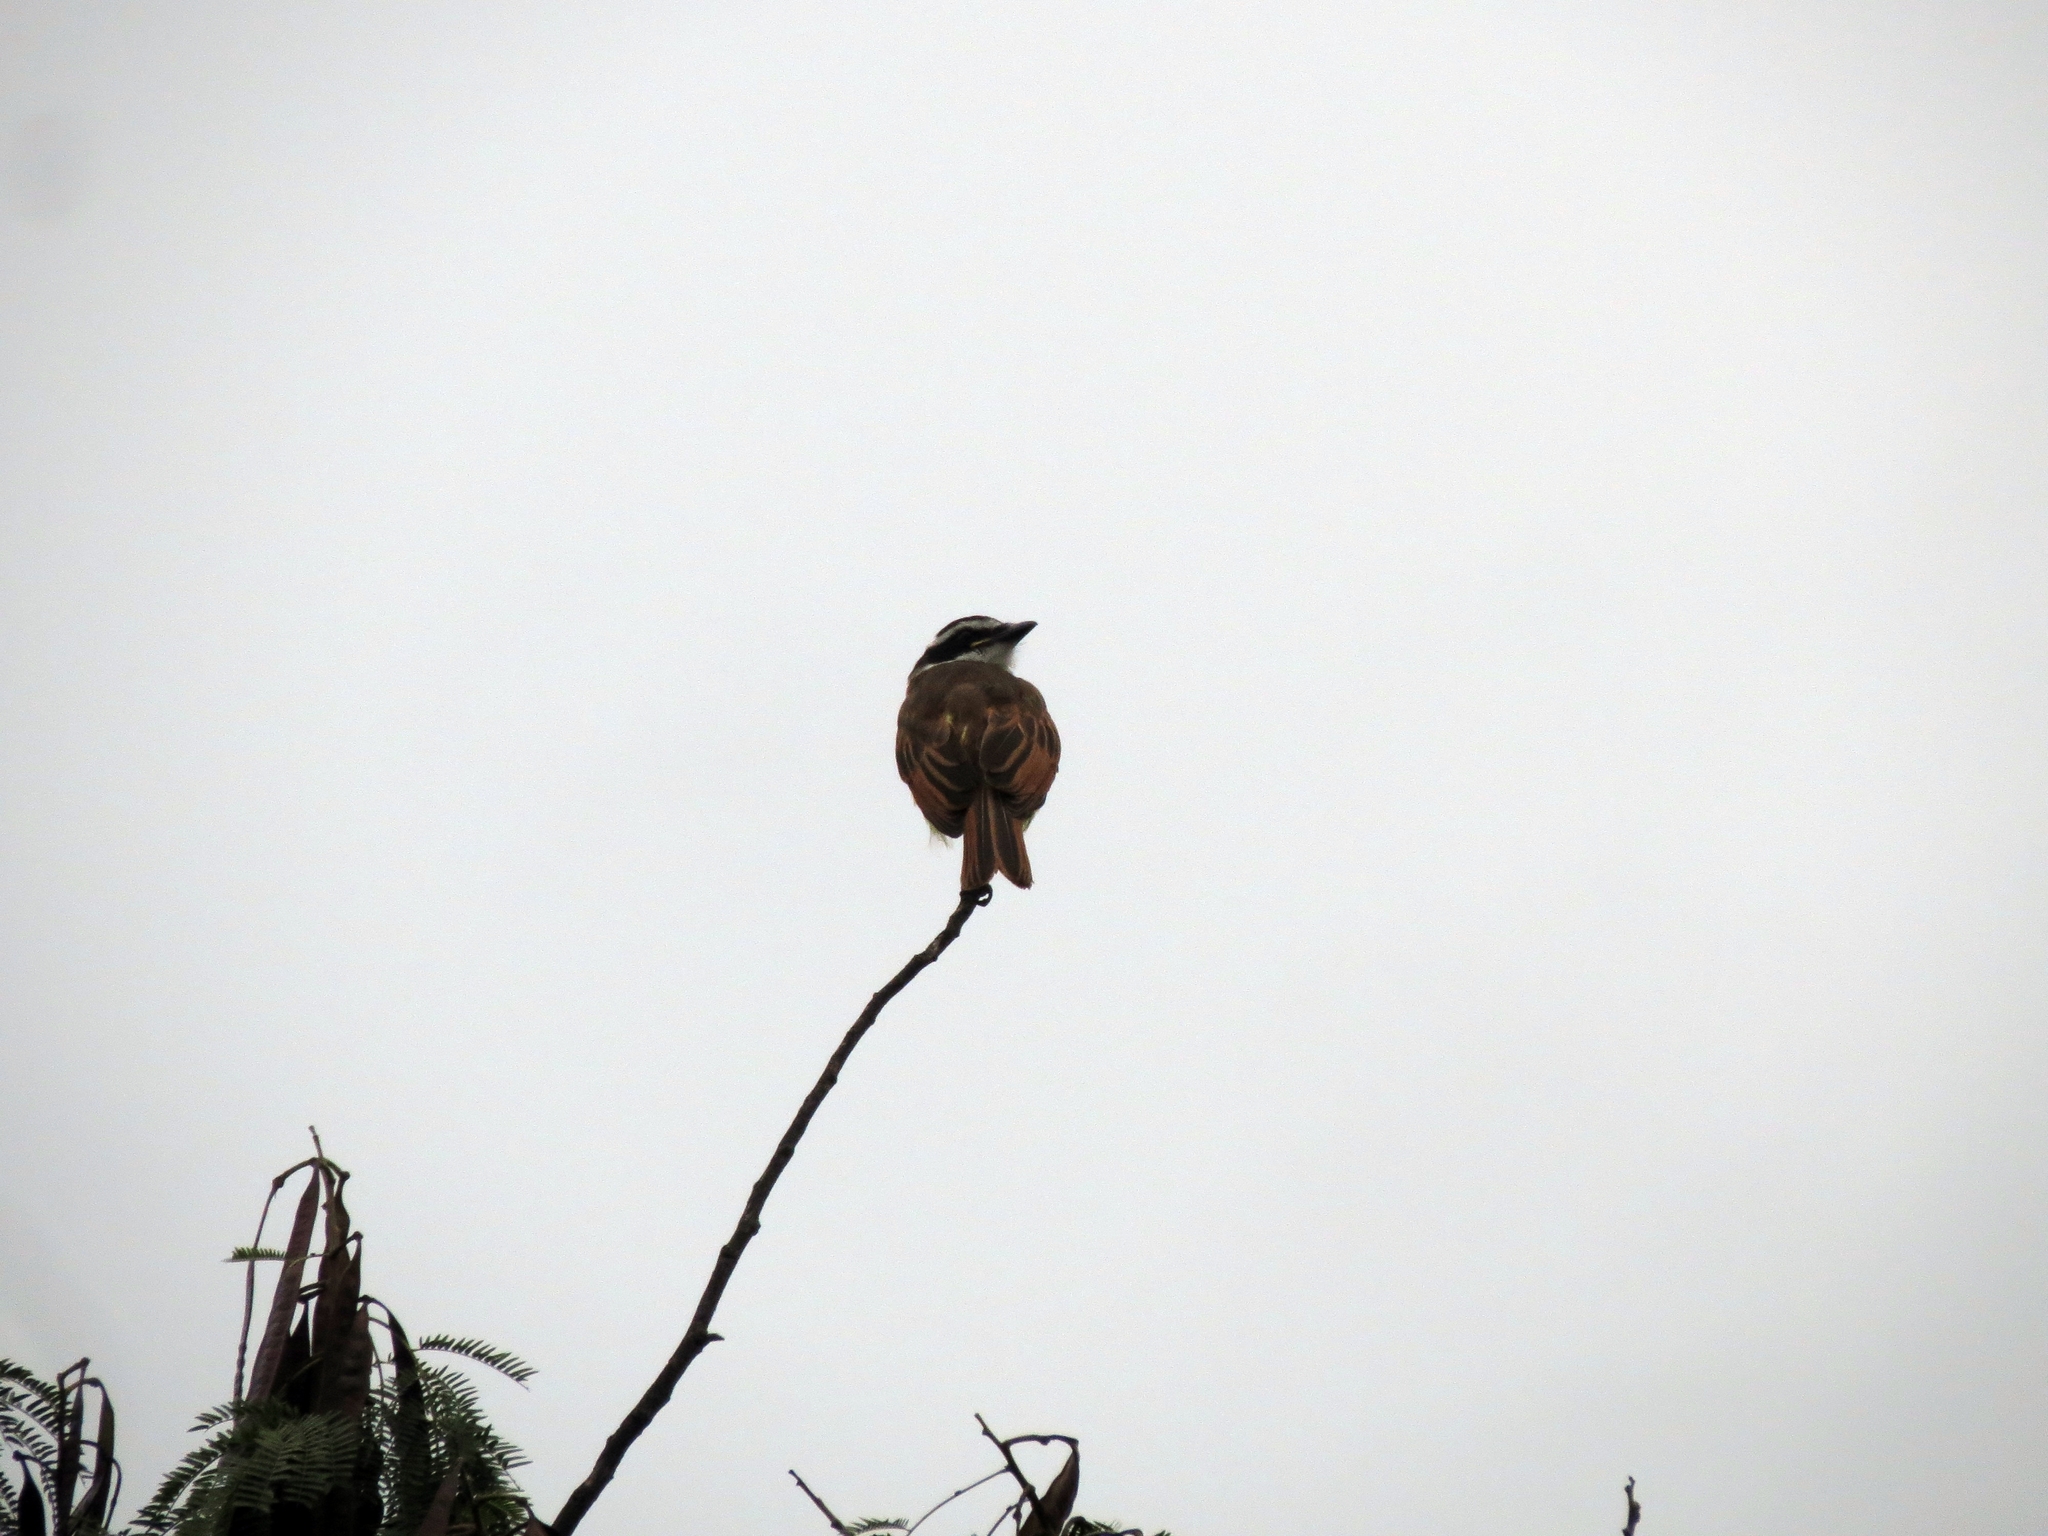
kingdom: Animalia
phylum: Chordata
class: Aves
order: Passeriformes
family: Tyrannidae
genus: Pitangus
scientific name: Pitangus sulphuratus
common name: Great kiskadee
